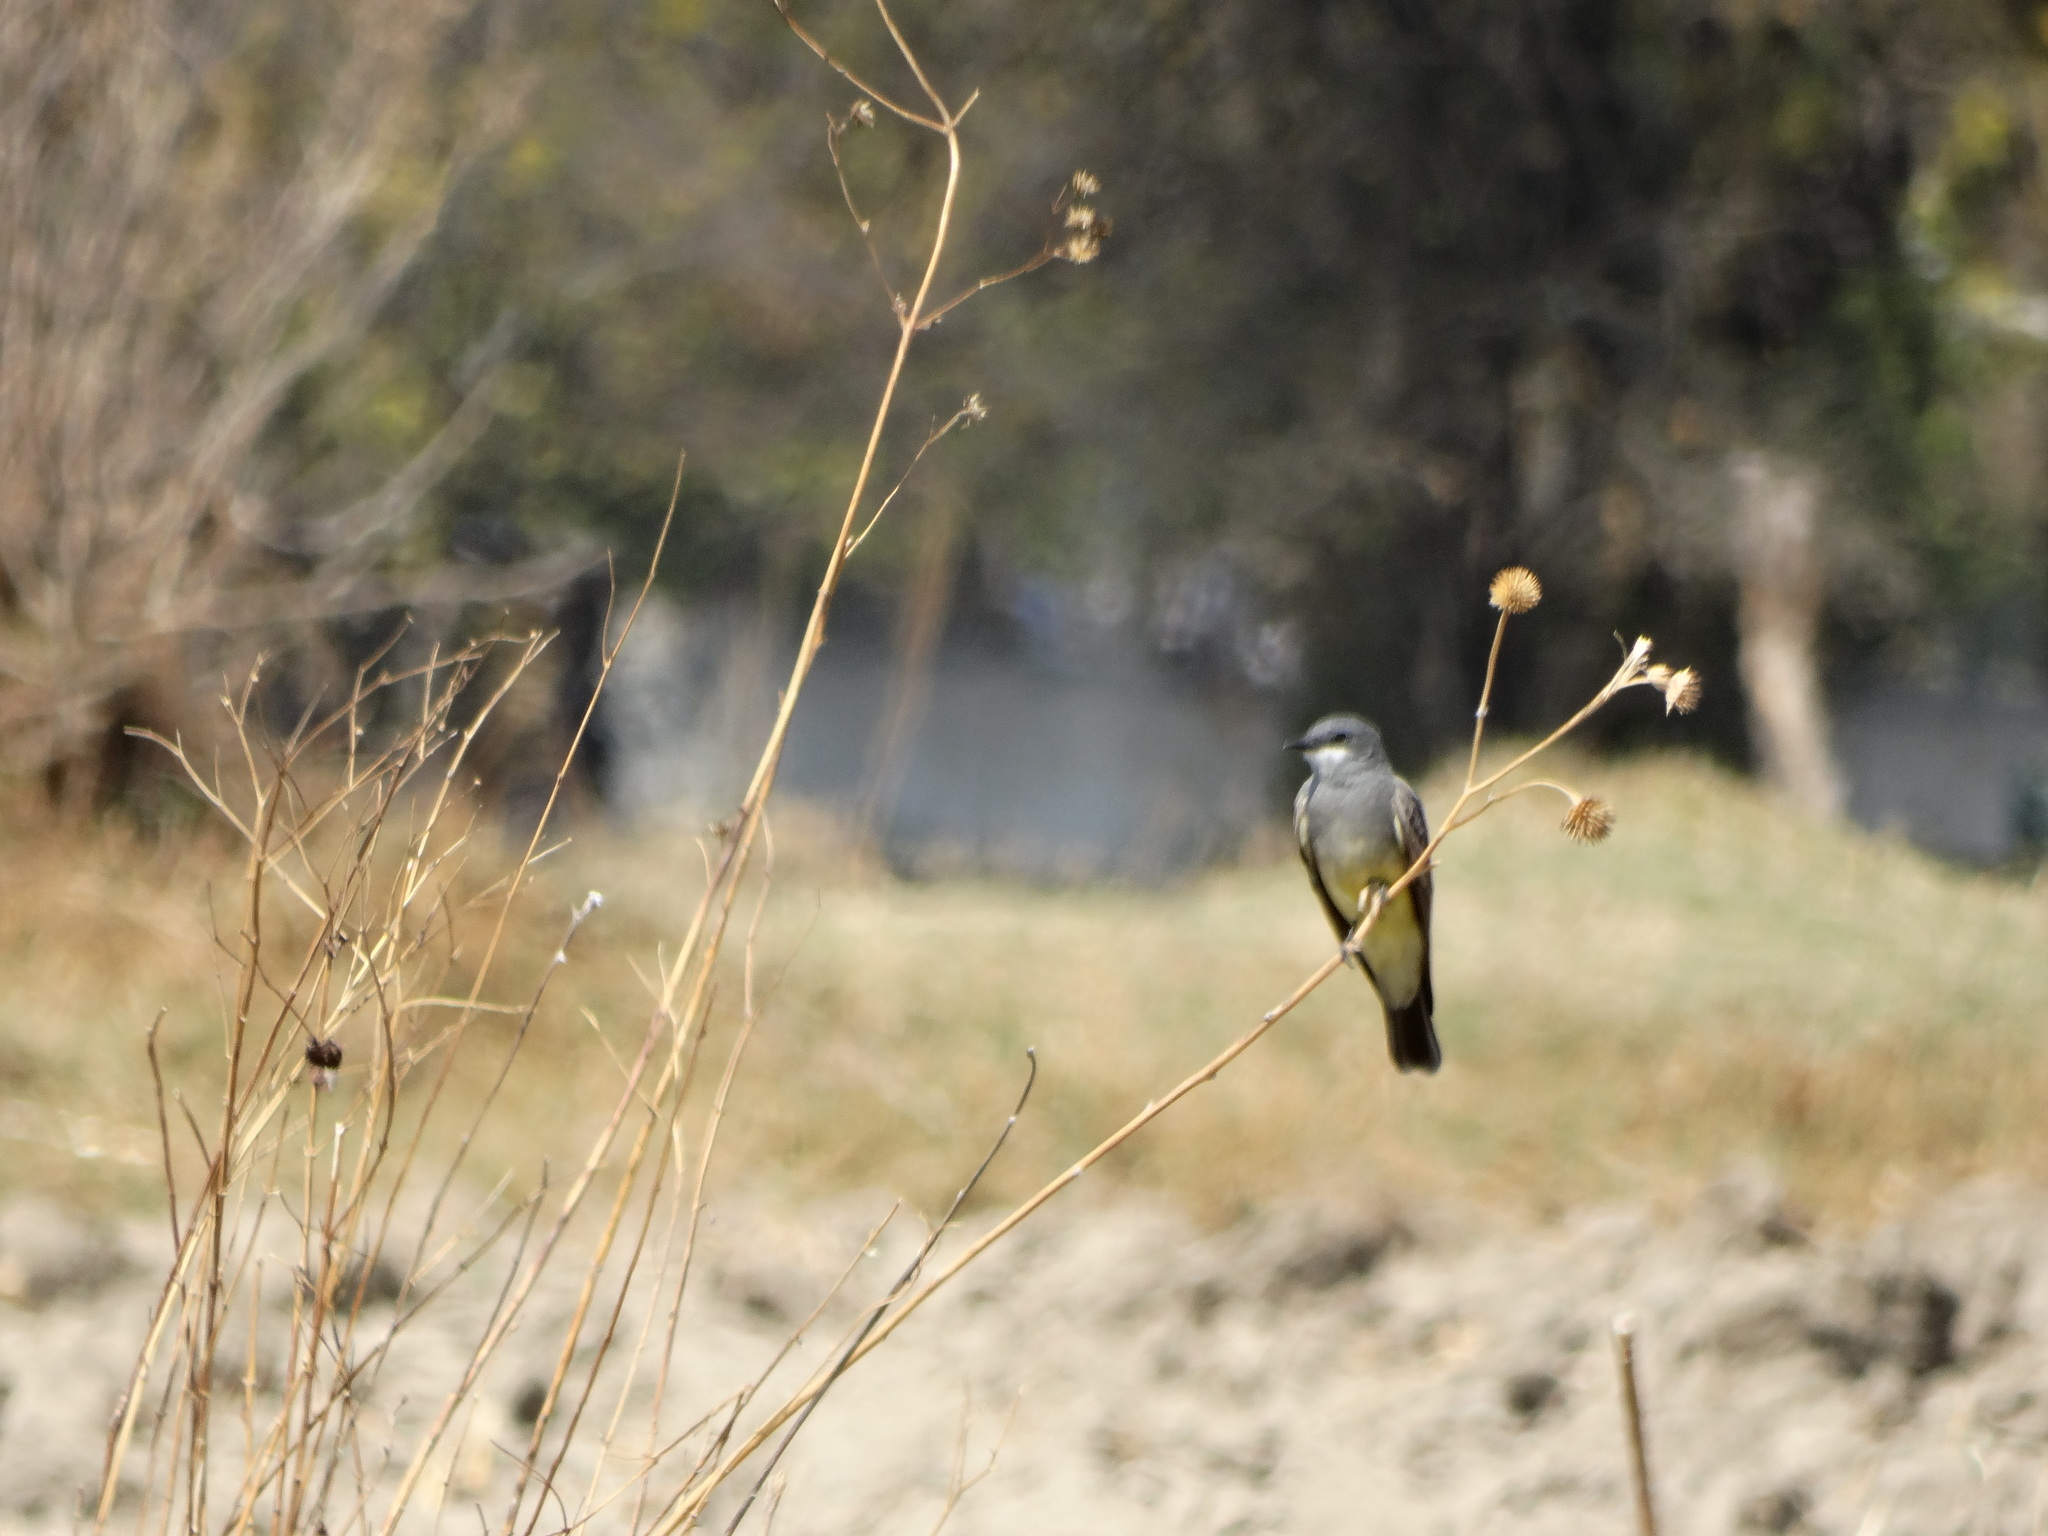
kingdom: Animalia
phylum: Chordata
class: Aves
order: Passeriformes
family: Tyrannidae
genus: Tyrannus
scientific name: Tyrannus vociferans
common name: Cassin's kingbird
